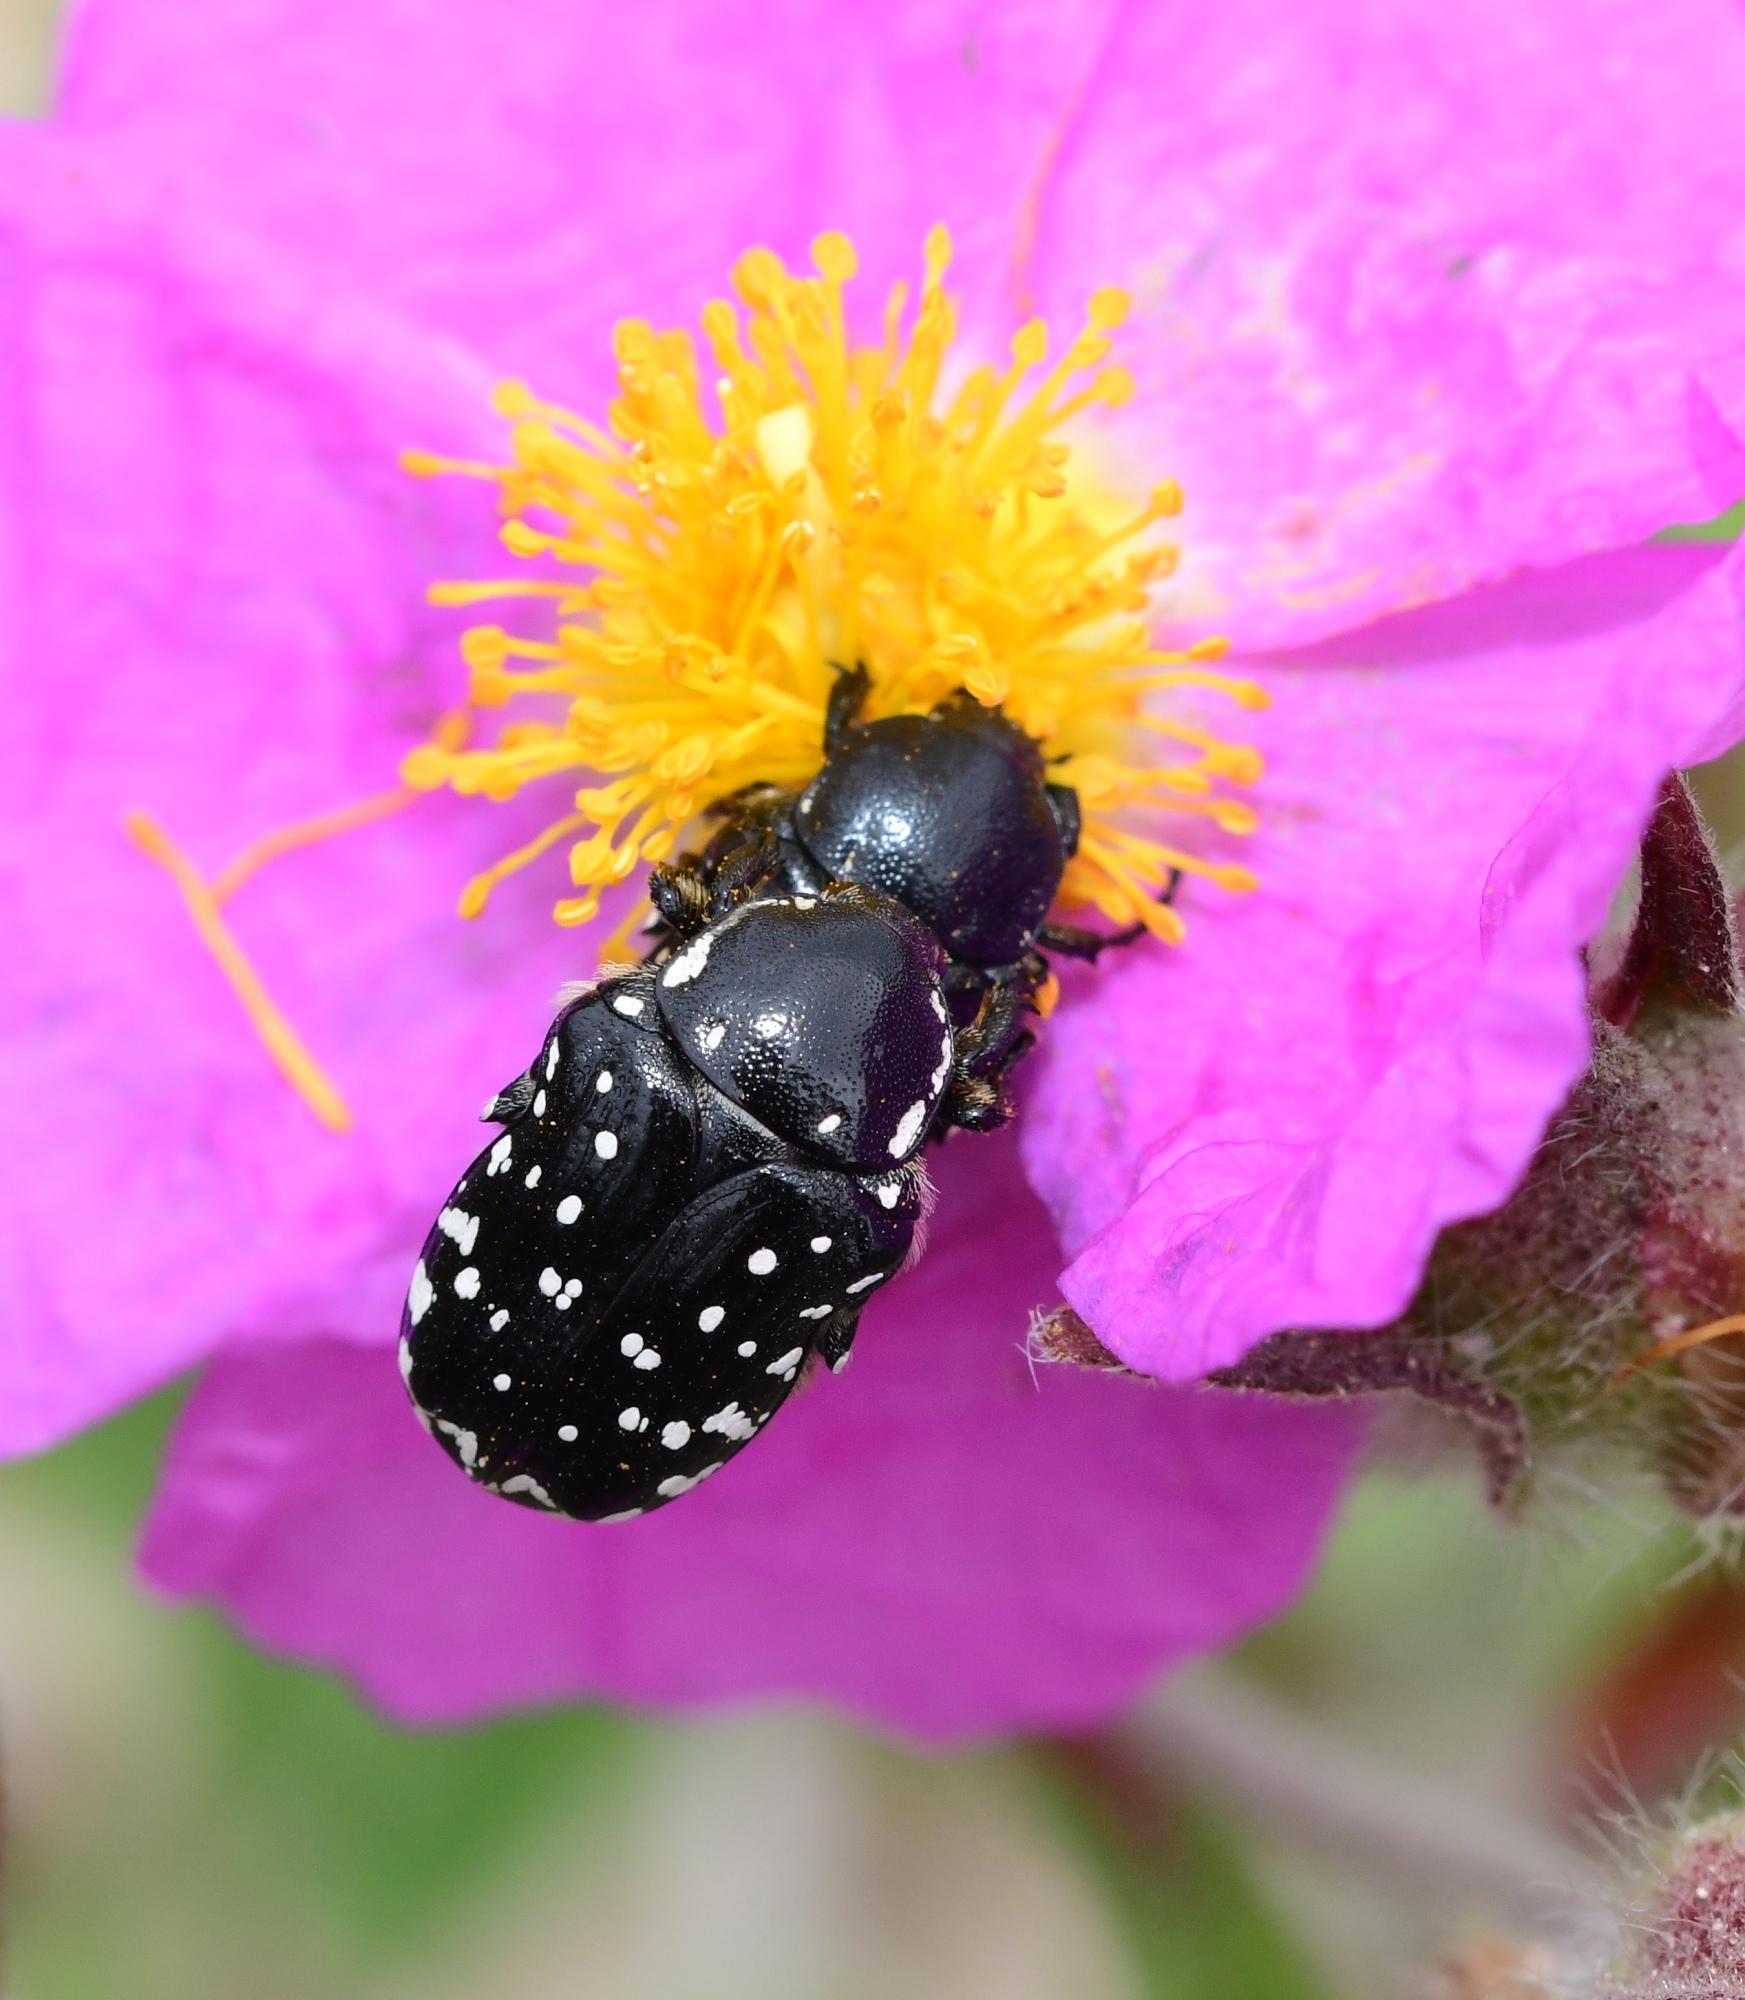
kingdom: Animalia
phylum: Arthropoda
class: Insecta
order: Coleoptera
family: Scarabaeidae
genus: Oxythyrea
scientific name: Oxythyrea cinctella
